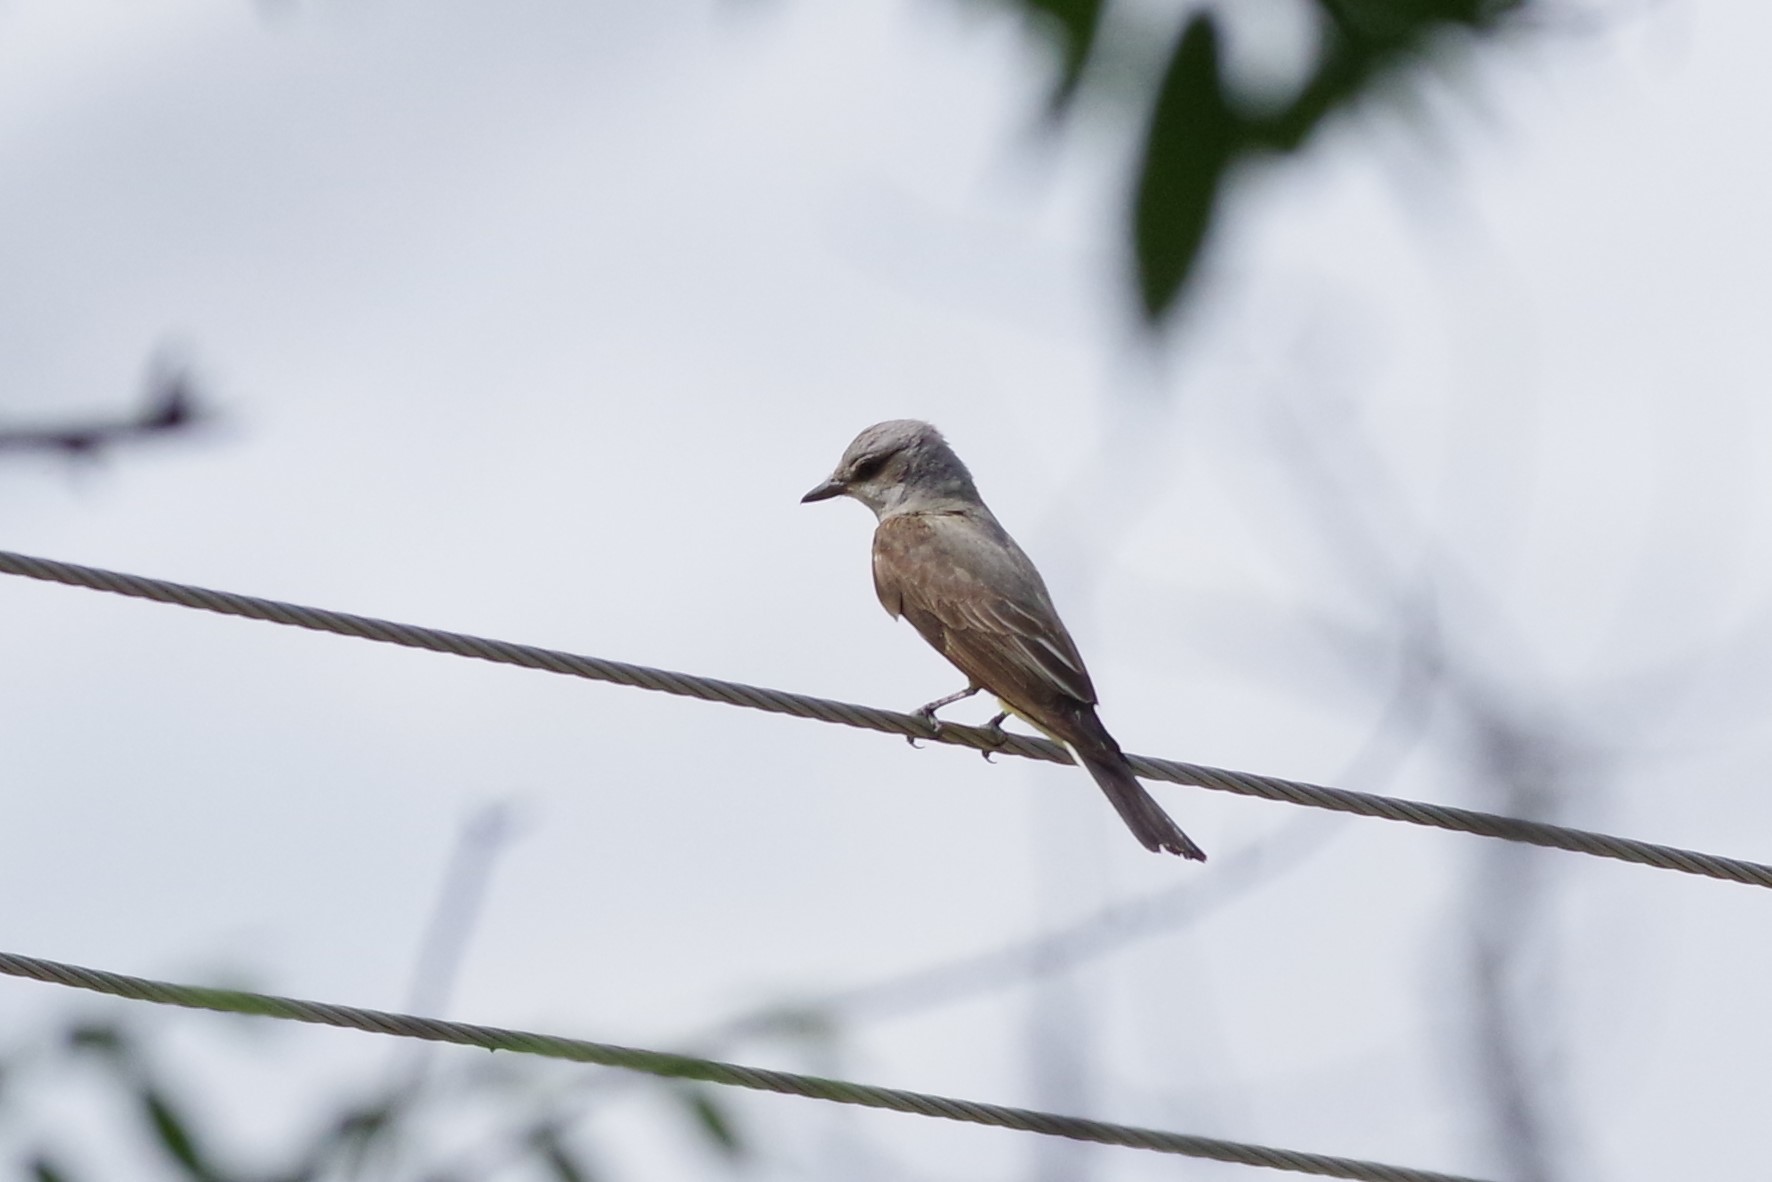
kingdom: Animalia
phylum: Chordata
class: Aves
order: Passeriformes
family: Tyrannidae
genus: Tyrannus
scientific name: Tyrannus verticalis
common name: Western kingbird
